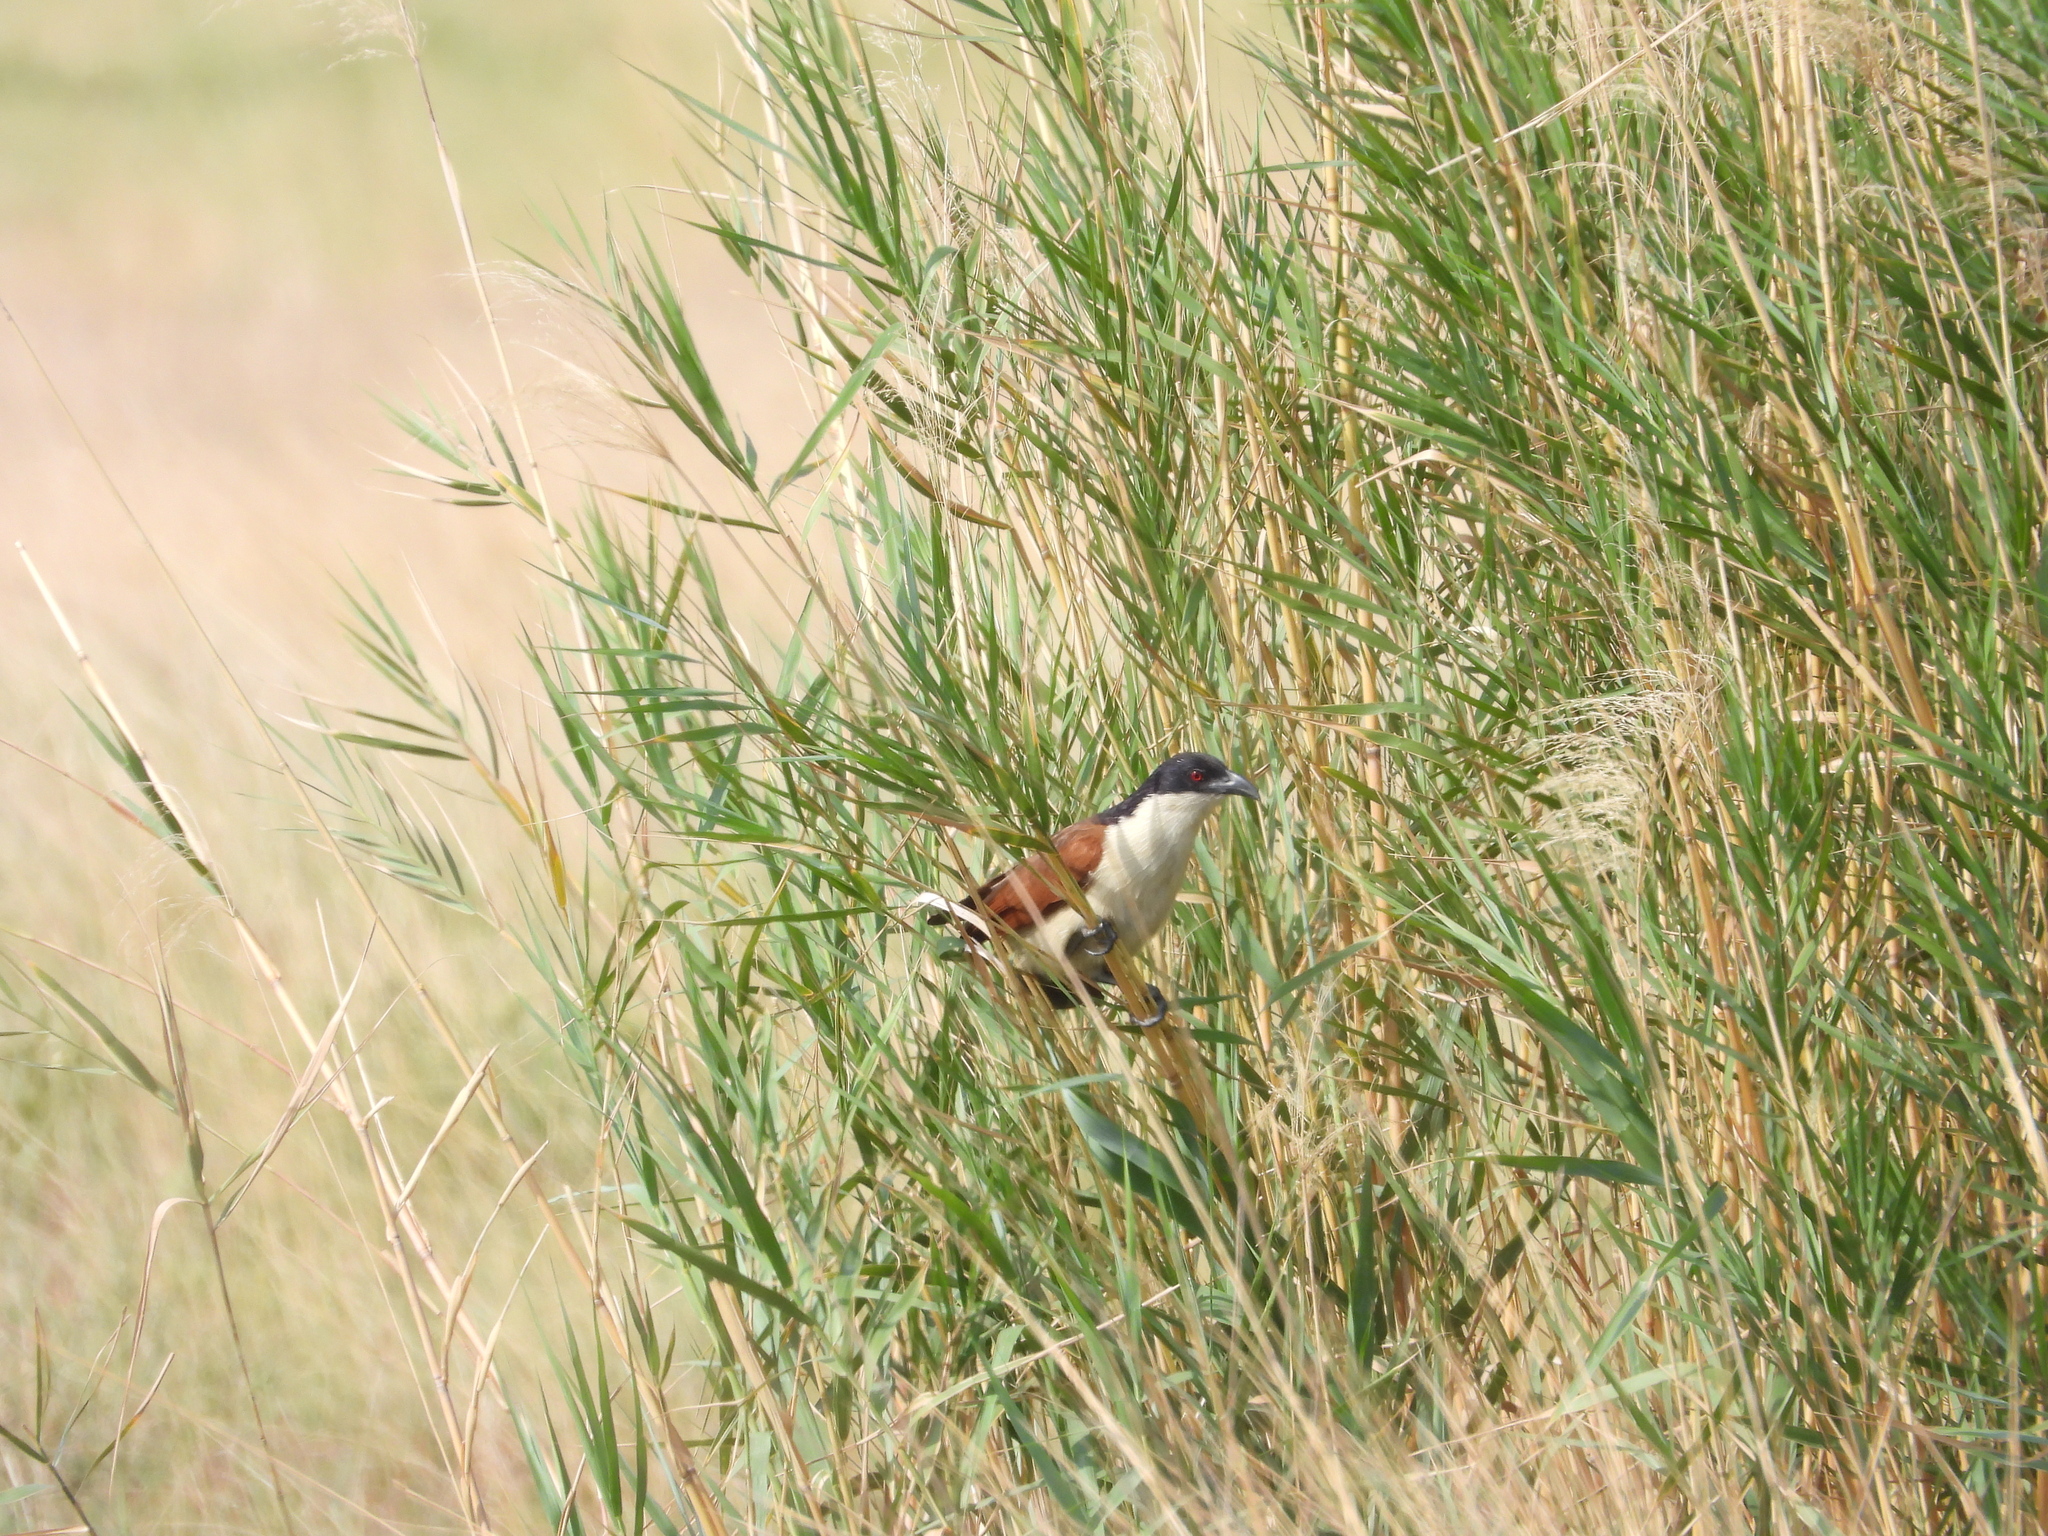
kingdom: Animalia
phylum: Chordata
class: Aves
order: Cuculiformes
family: Cuculidae
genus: Centropus
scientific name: Centropus cupreicaudus
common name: Coppery-tailed coucal
